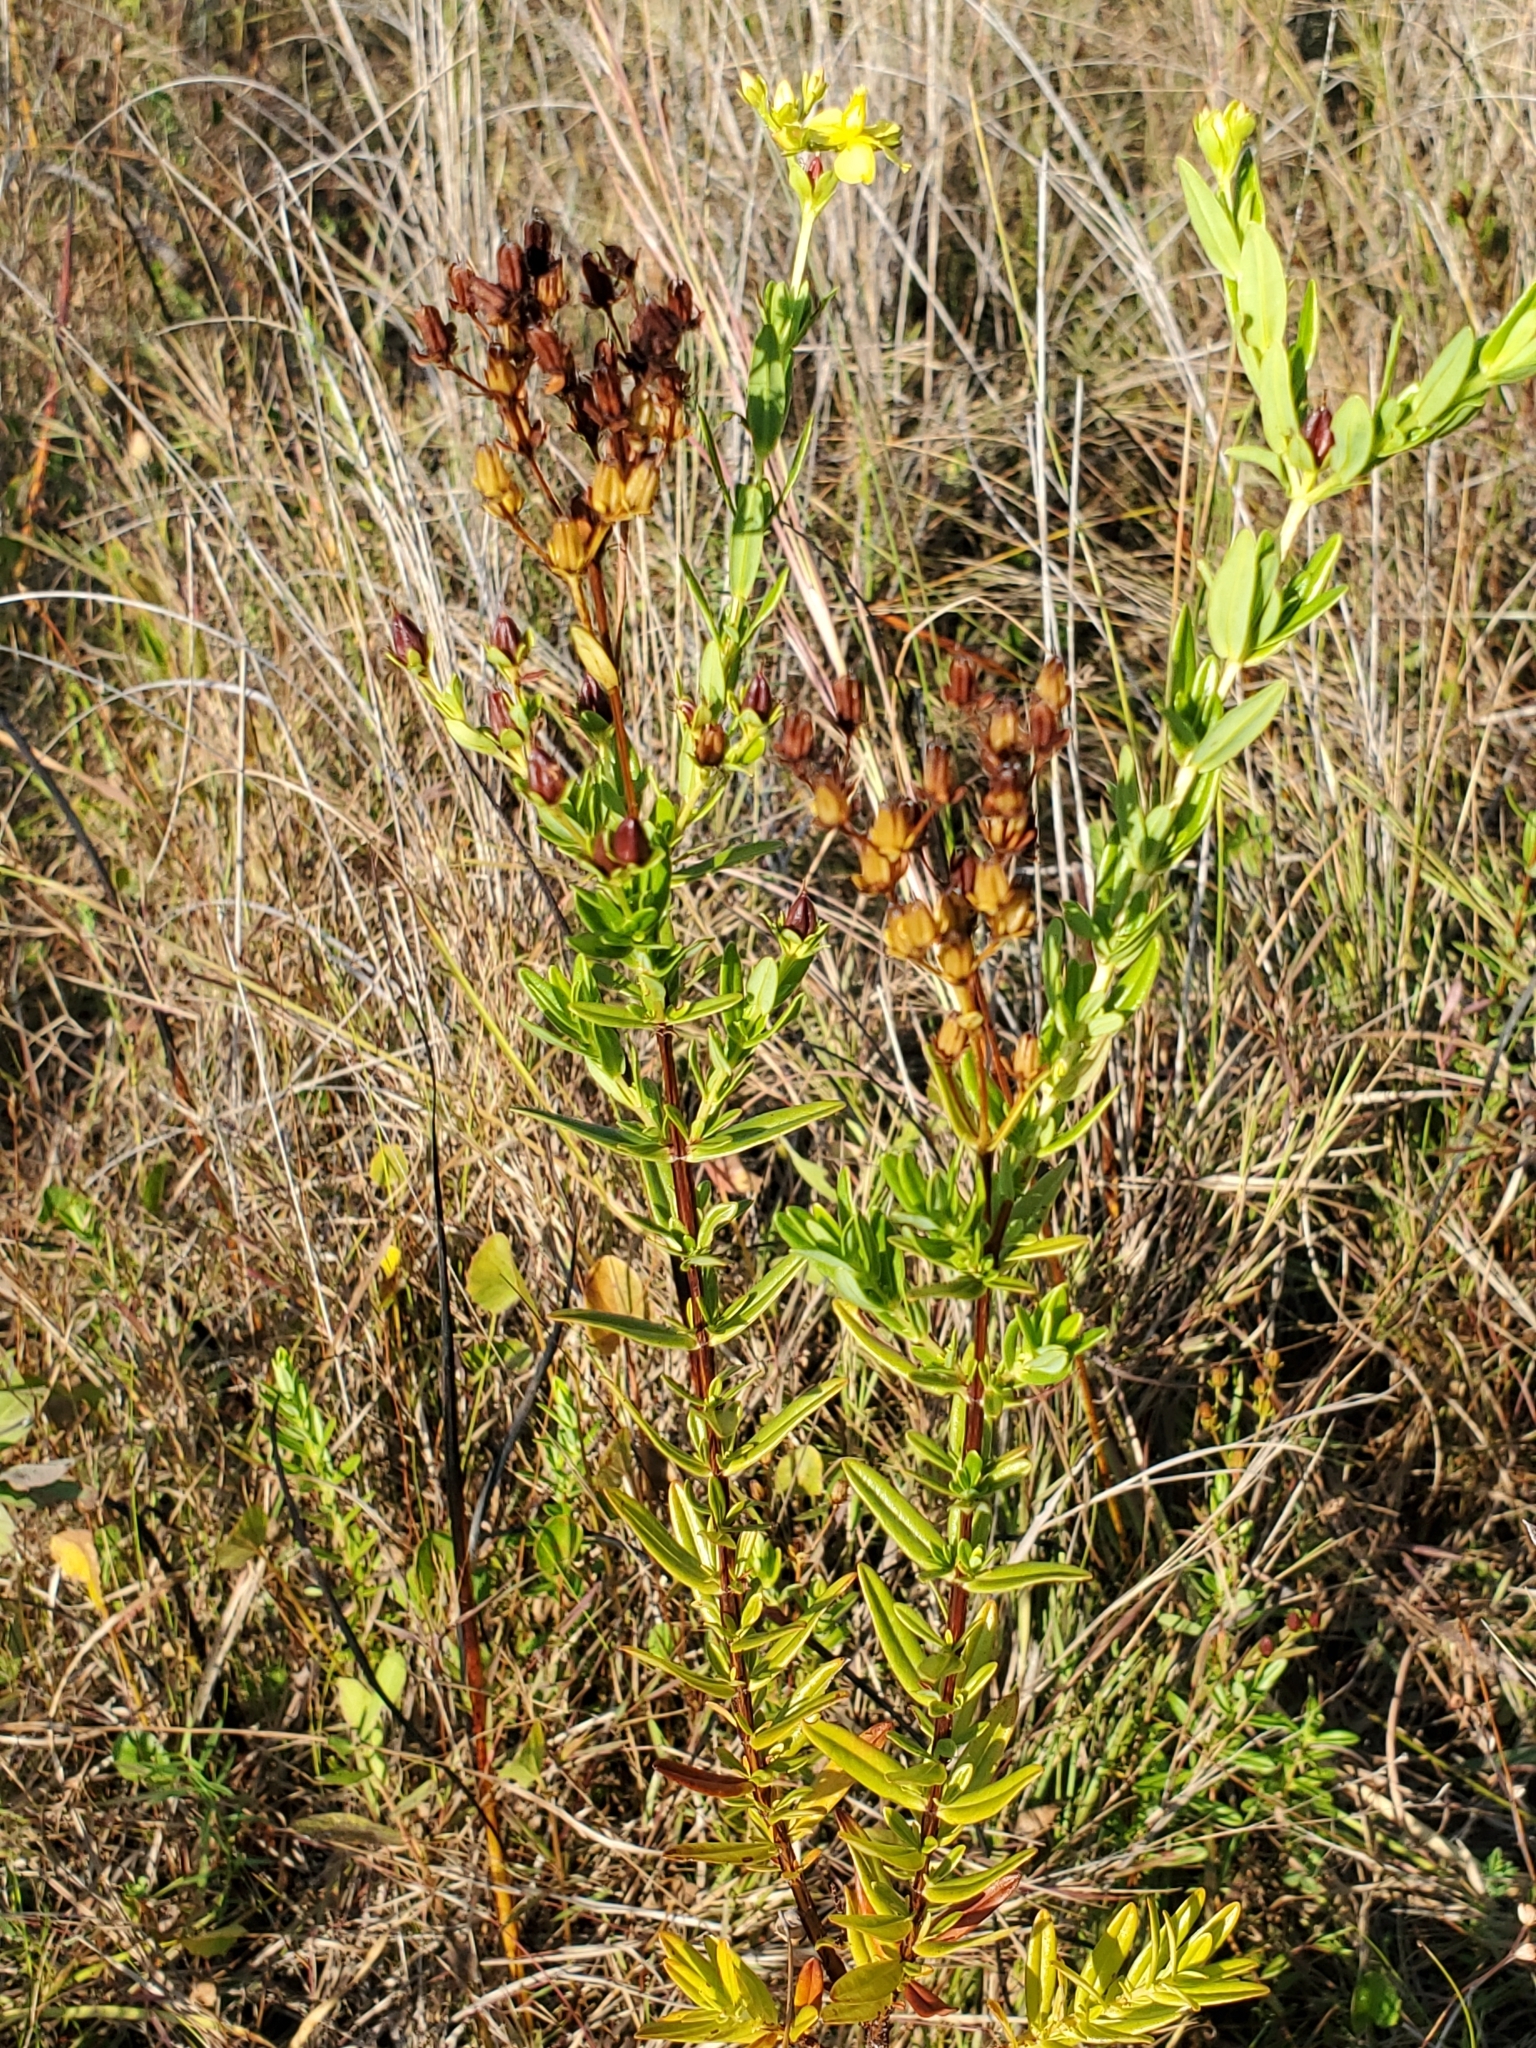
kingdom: Plantae
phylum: Tracheophyta
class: Magnoliopsida
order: Malpighiales
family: Hypericaceae
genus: Hypericum
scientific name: Hypericum cistifolium
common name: Round-pod st. john's-wort
